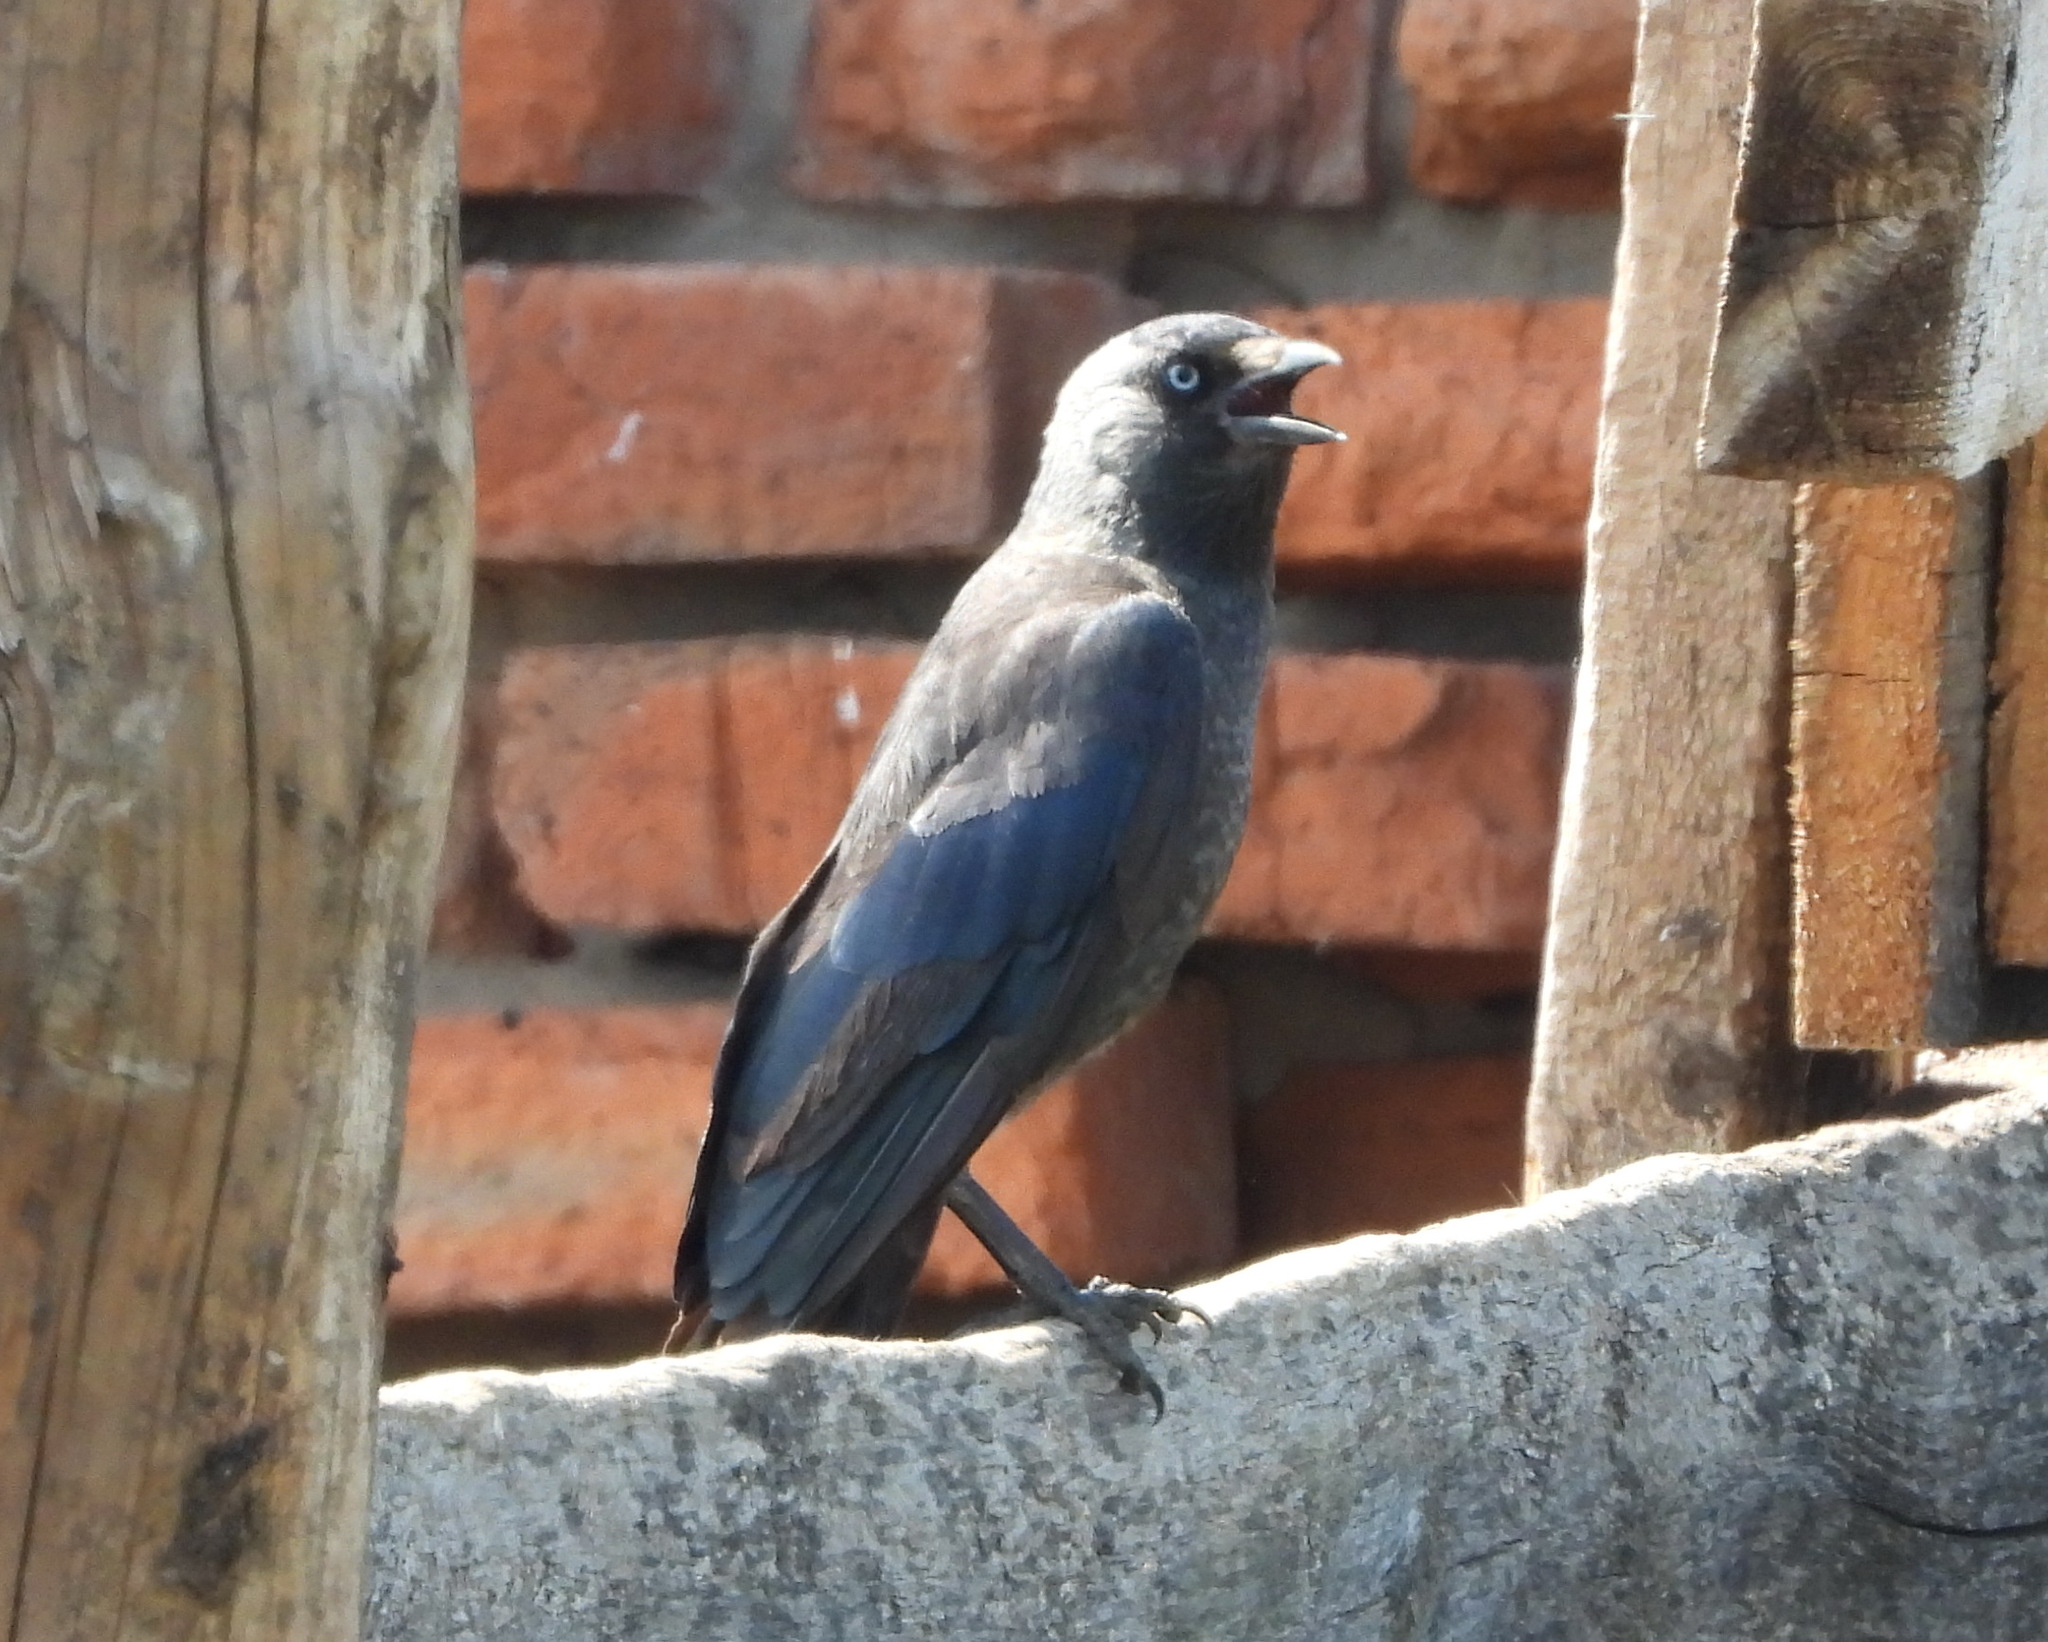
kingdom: Animalia
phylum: Chordata
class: Aves
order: Passeriformes
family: Corvidae
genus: Coloeus
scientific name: Coloeus monedula
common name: Western jackdaw
